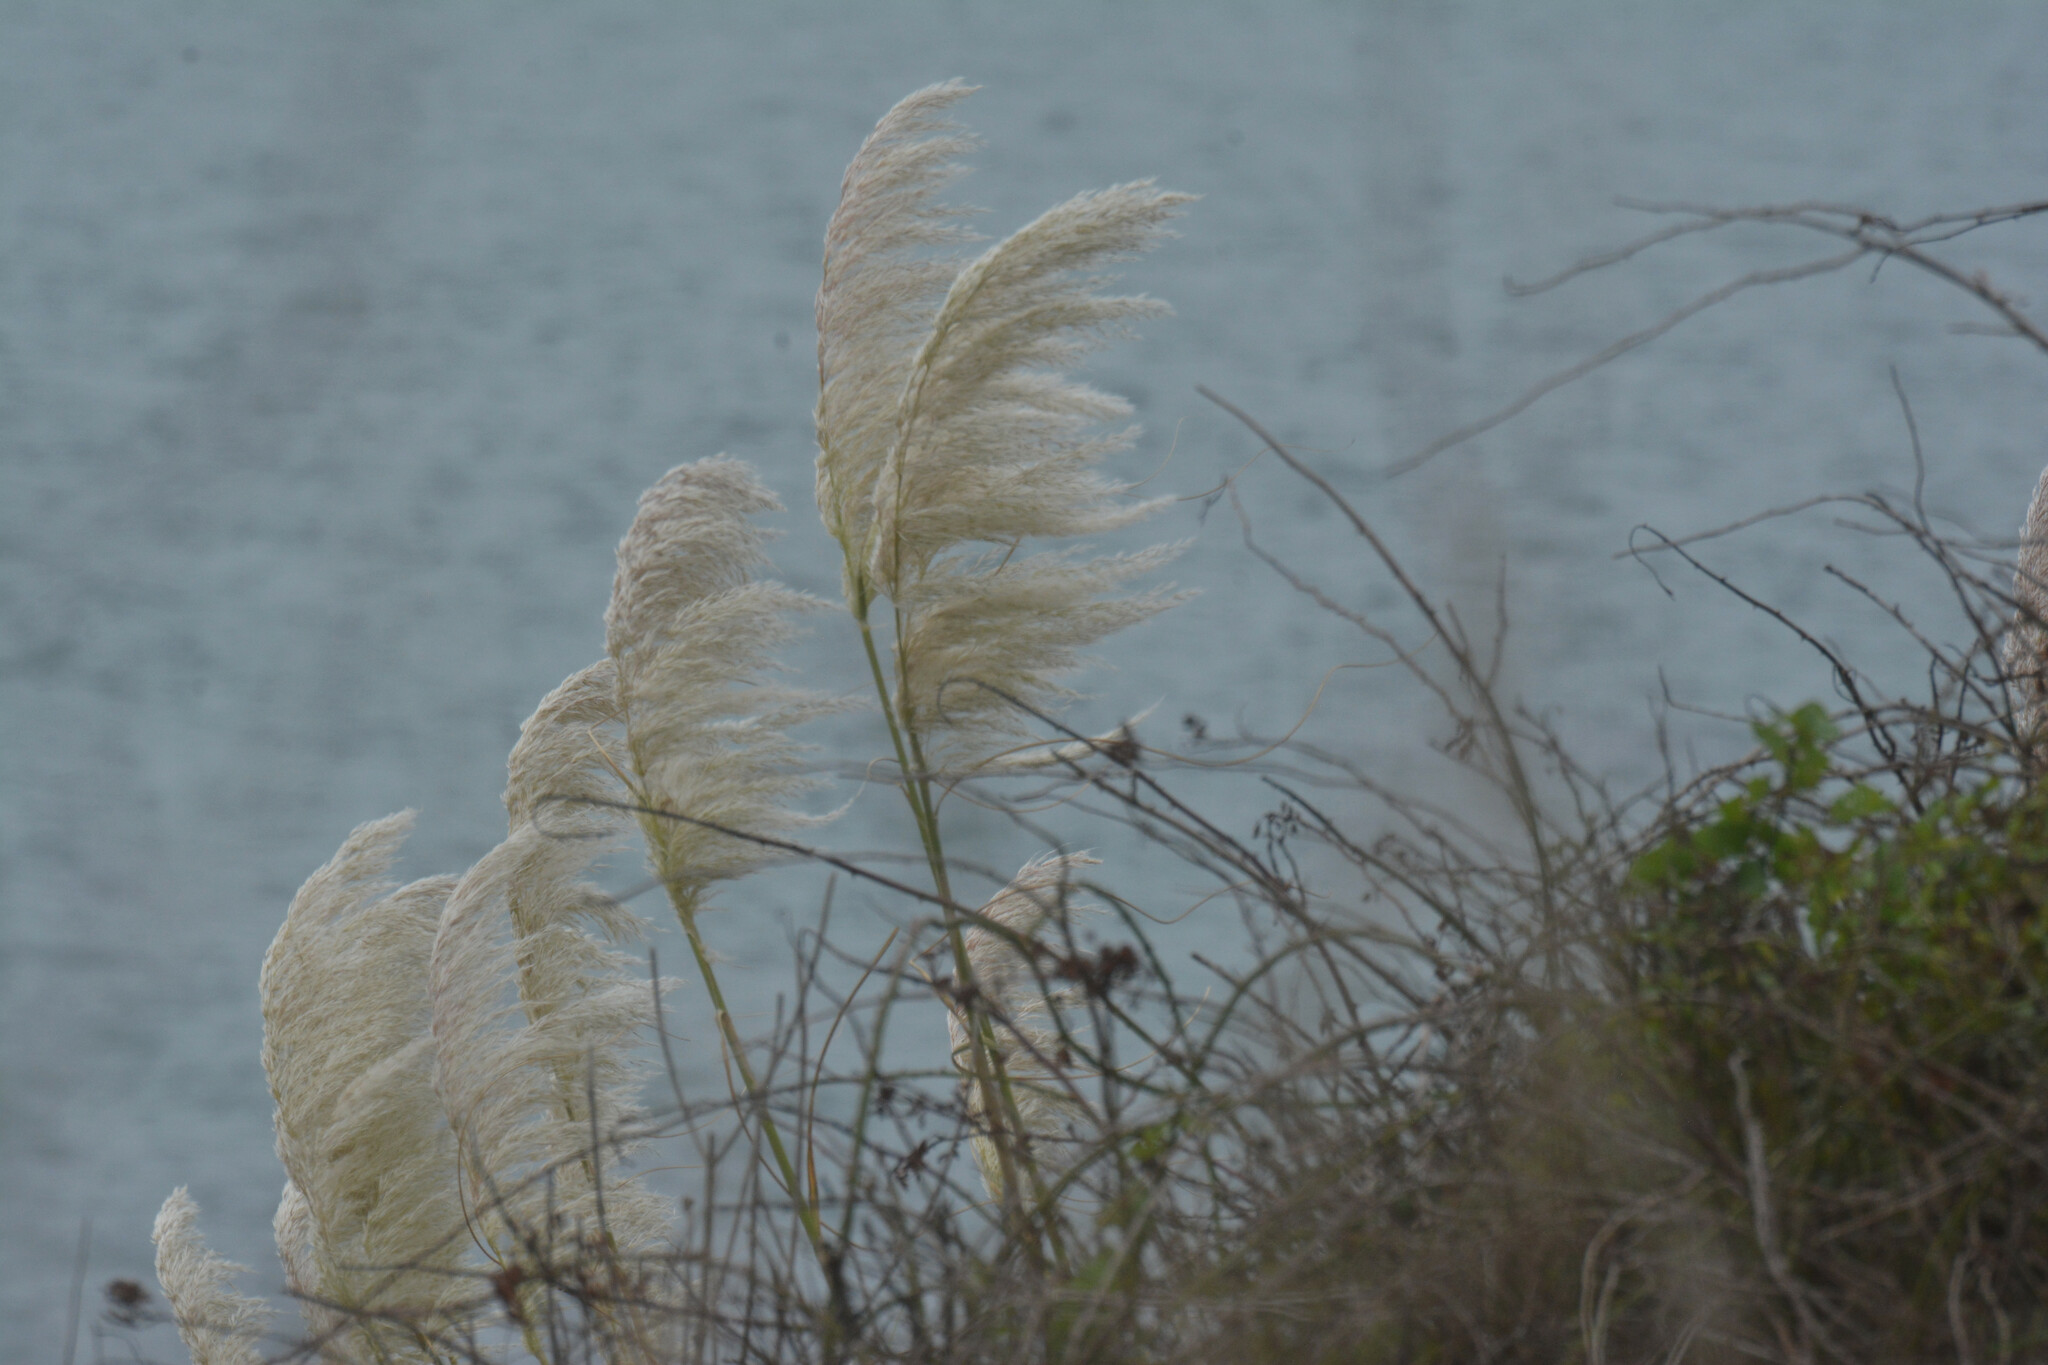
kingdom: Plantae
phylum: Tracheophyta
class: Liliopsida
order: Poales
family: Poaceae
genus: Cortaderia
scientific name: Cortaderia selloana
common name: Uruguayan pampas grass
